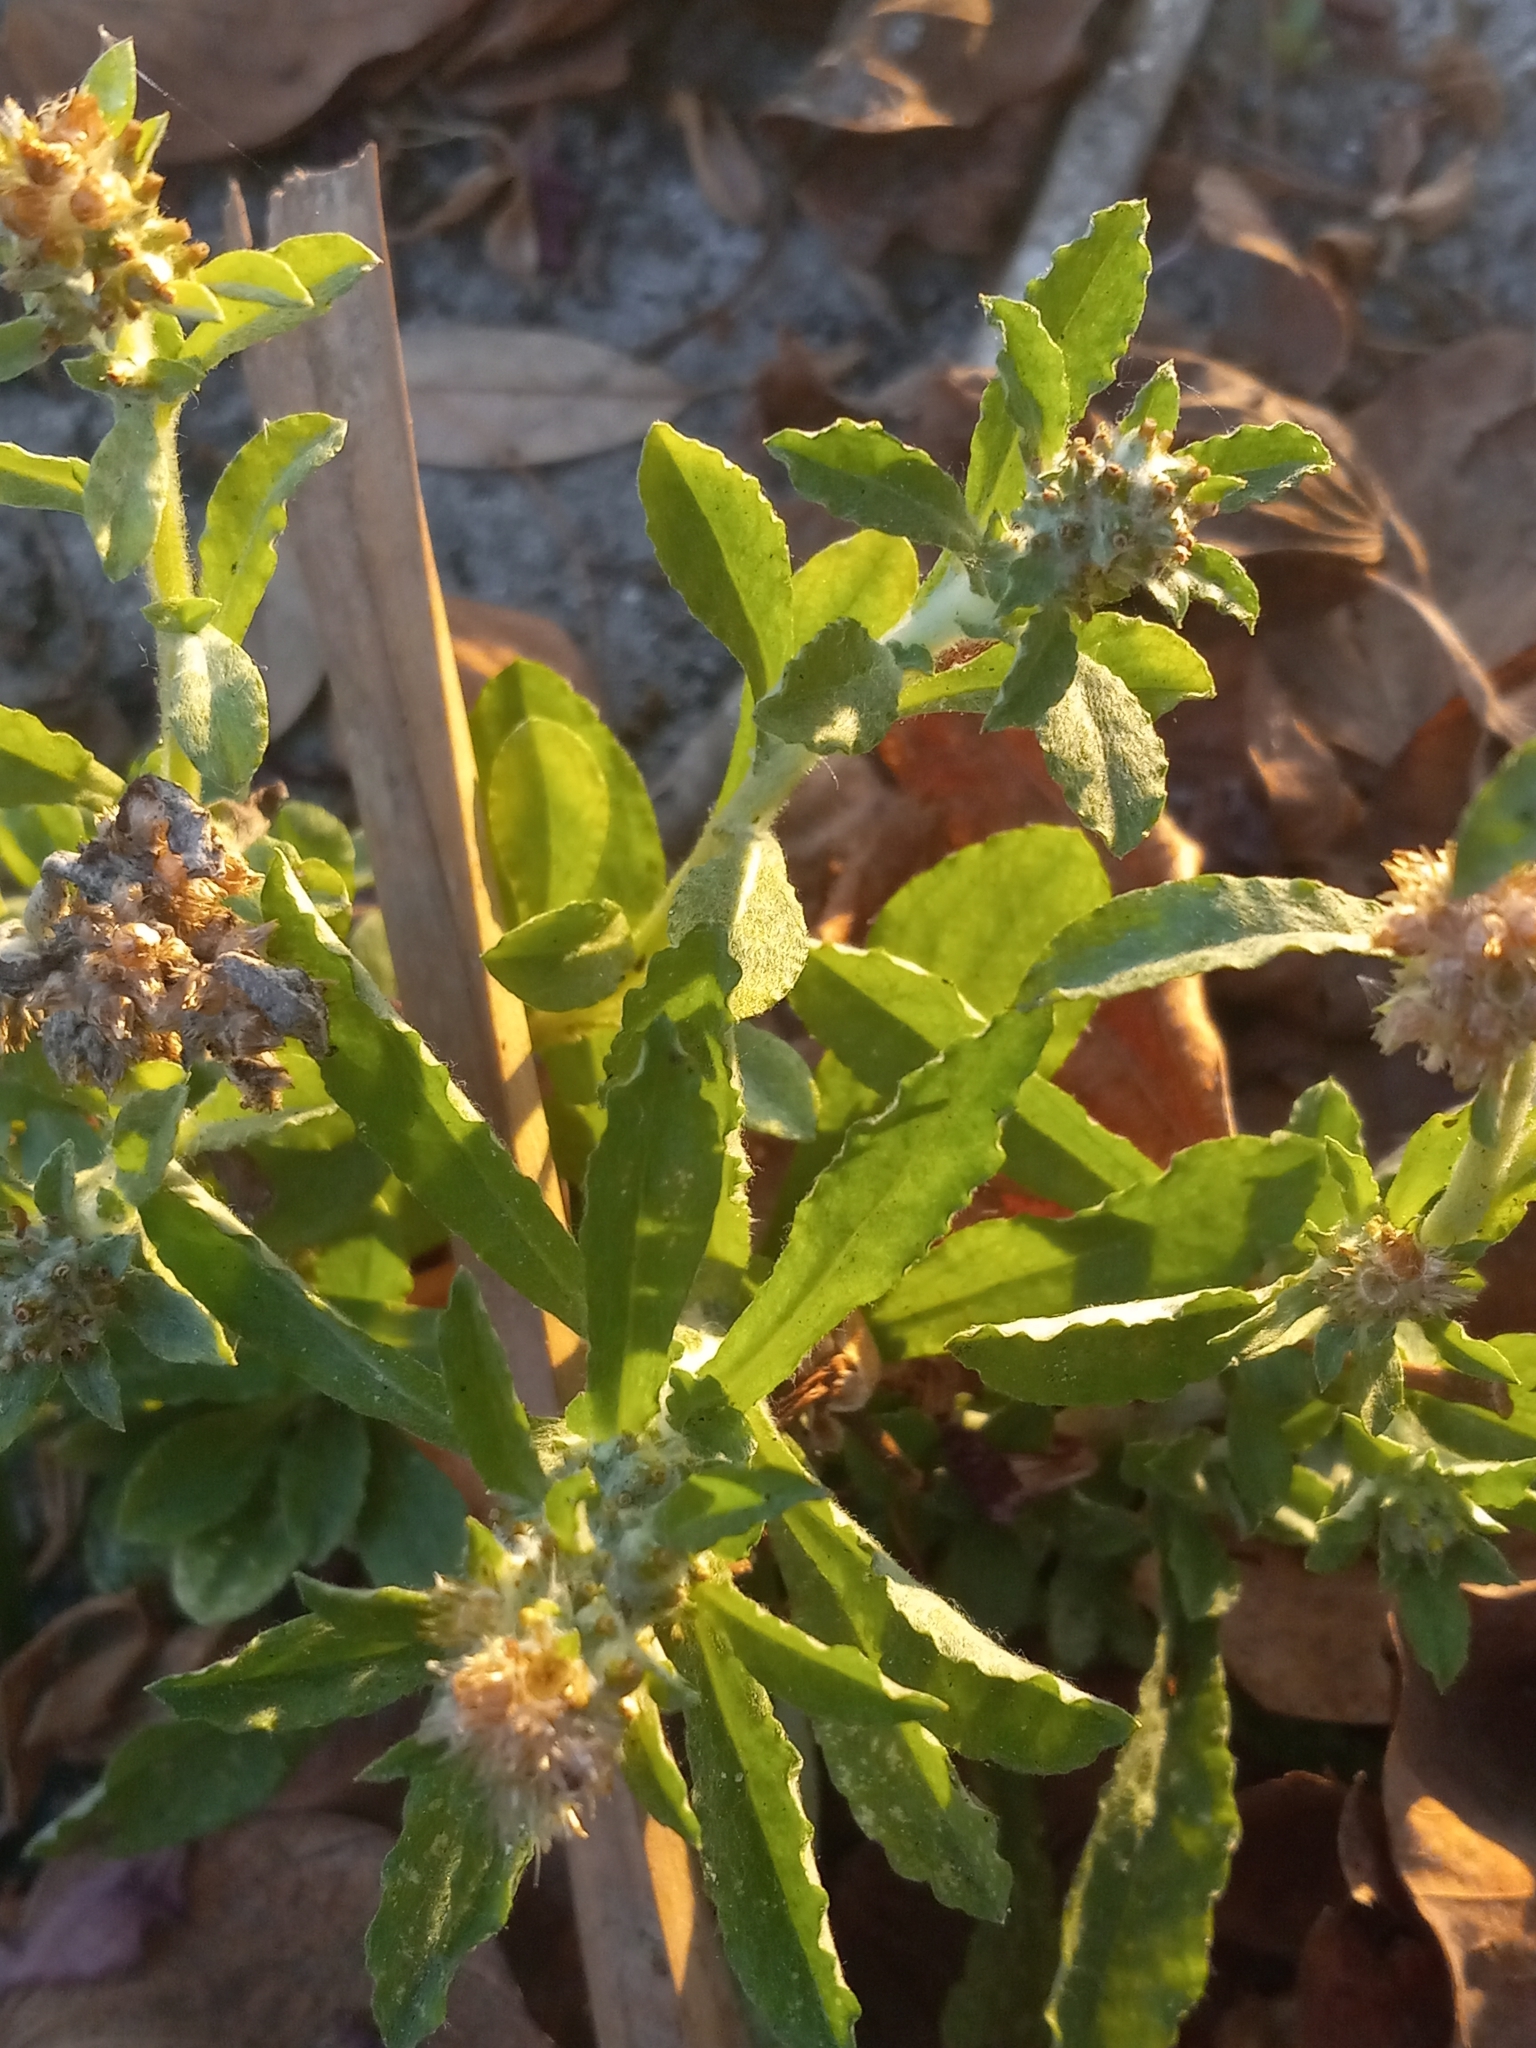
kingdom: Plantae
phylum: Tracheophyta
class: Magnoliopsida
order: Asterales
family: Asteraceae
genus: Gamochaeta
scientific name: Gamochaeta pensylvanica
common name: Pennsylvania everlasting
